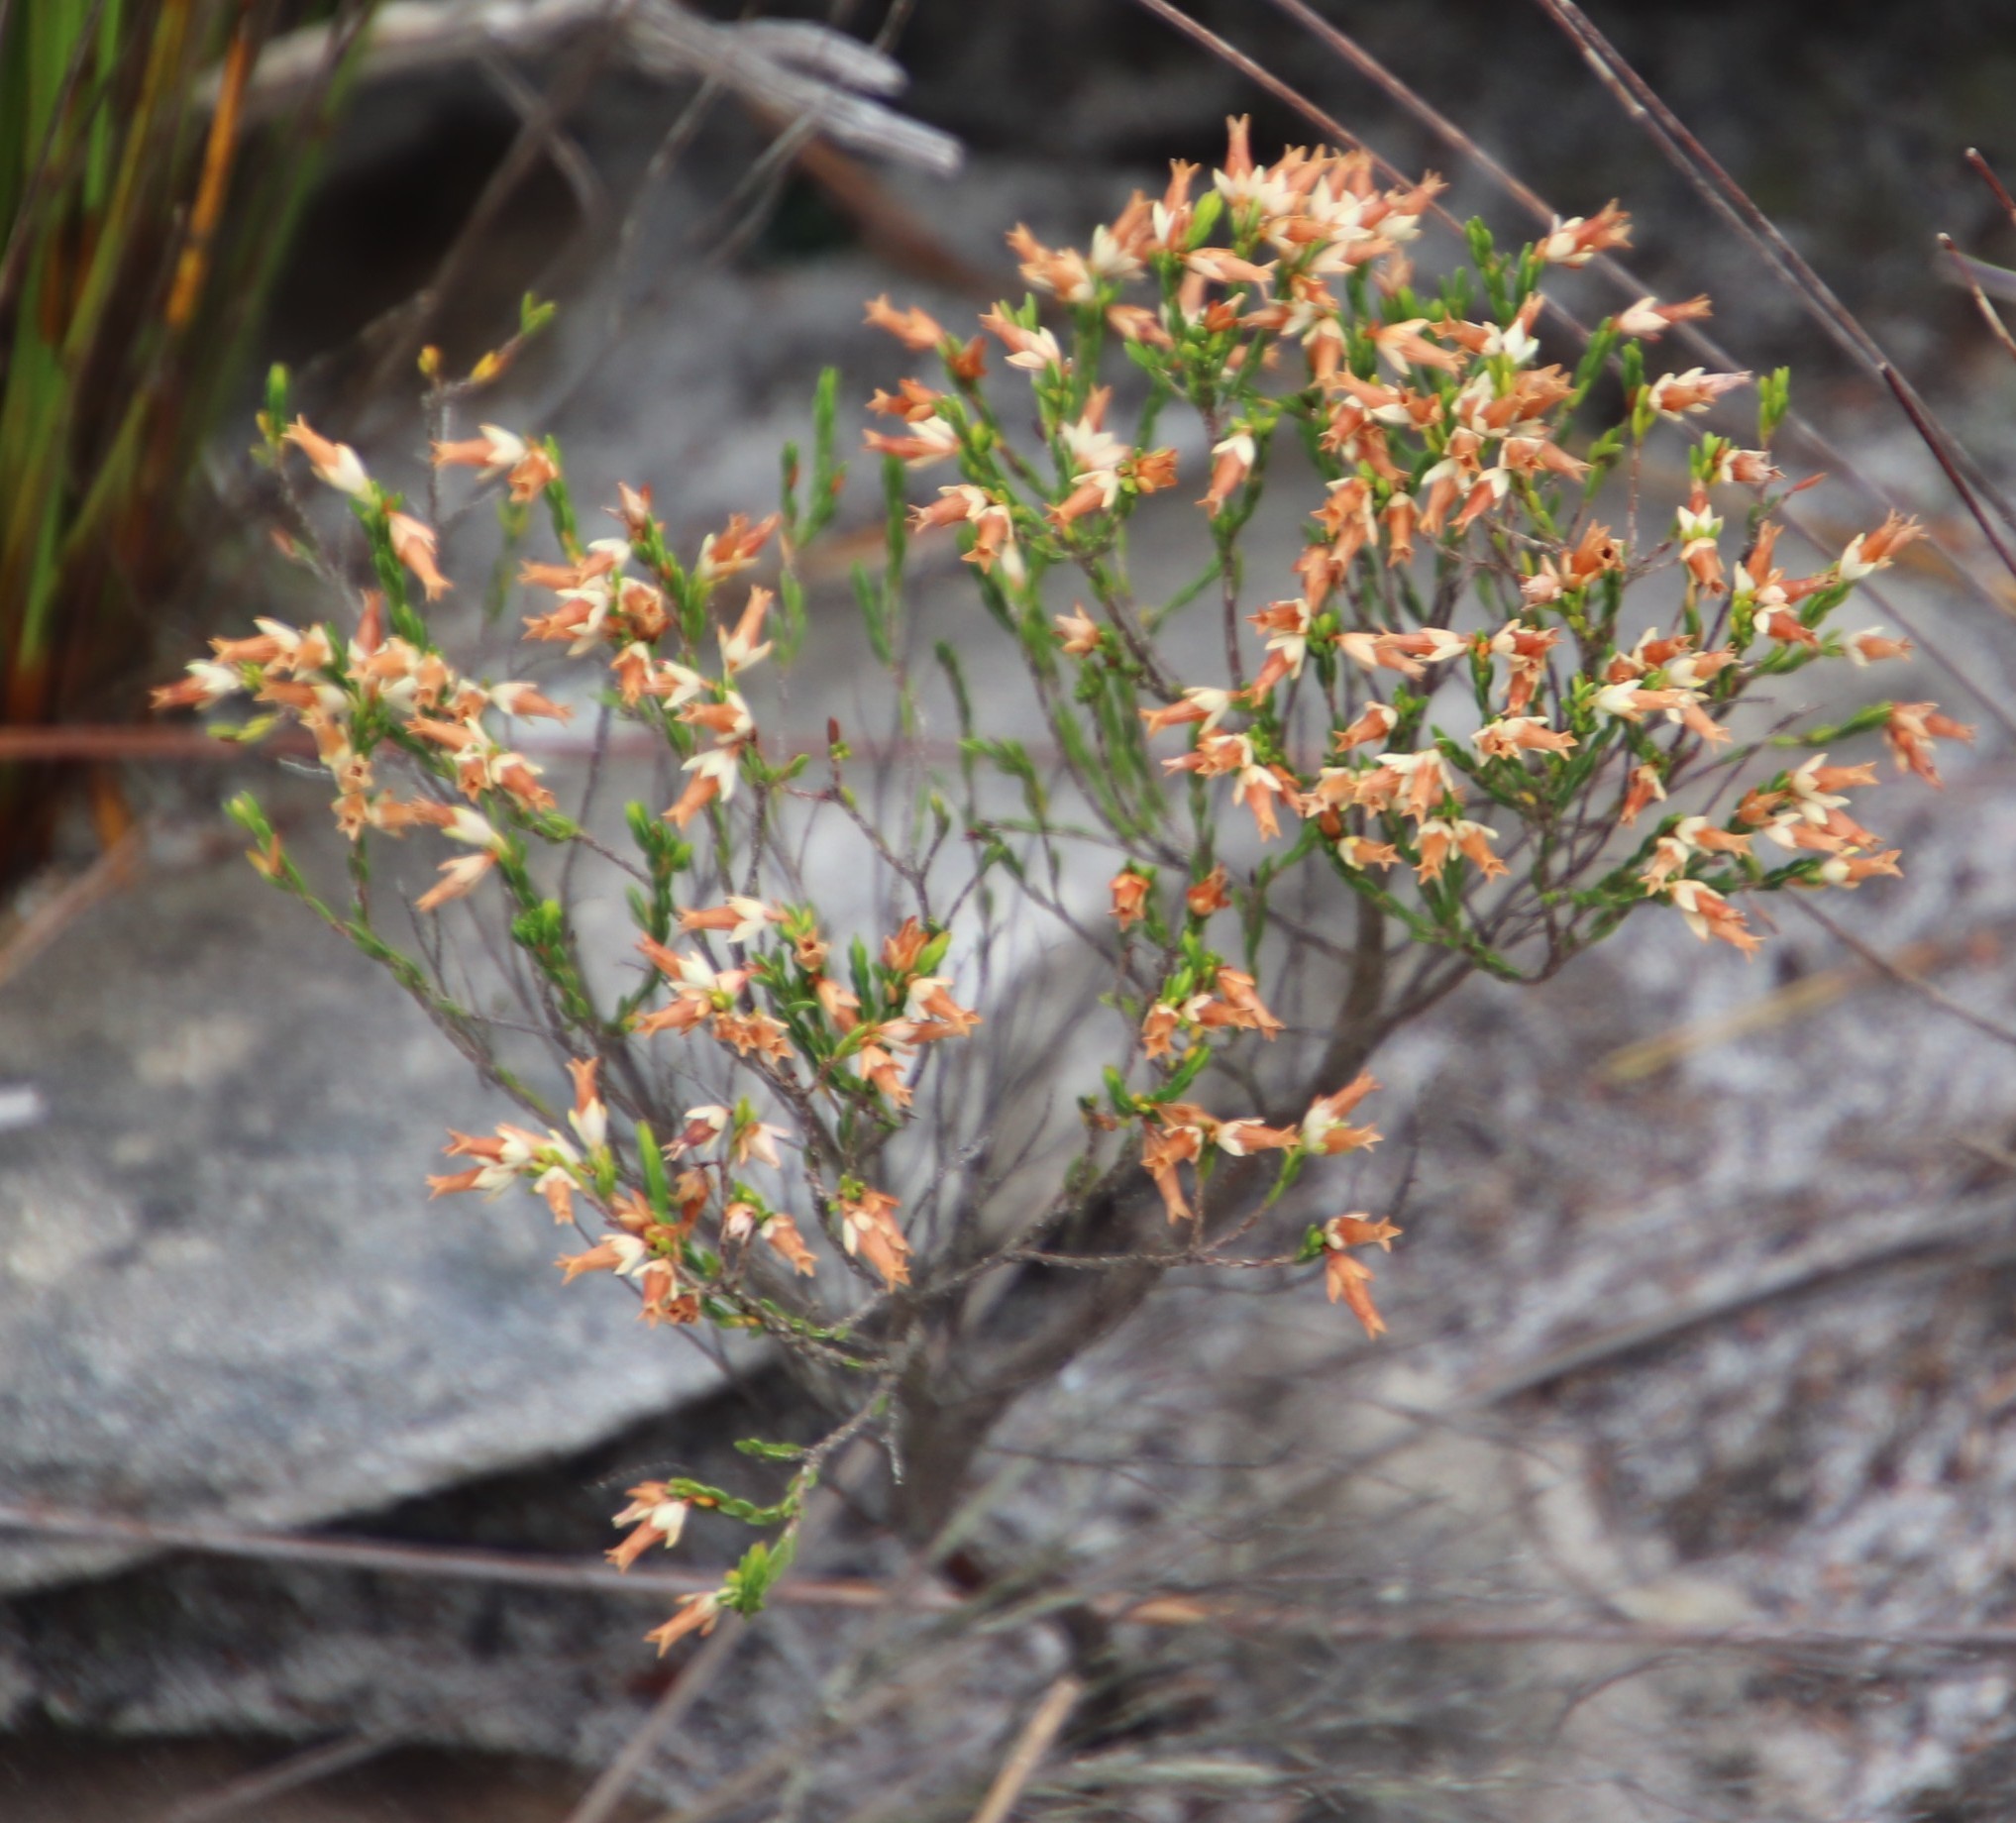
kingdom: Plantae
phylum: Tracheophyta
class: Magnoliopsida
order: Ericales
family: Ericaceae
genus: Erica
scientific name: Erica lutea
